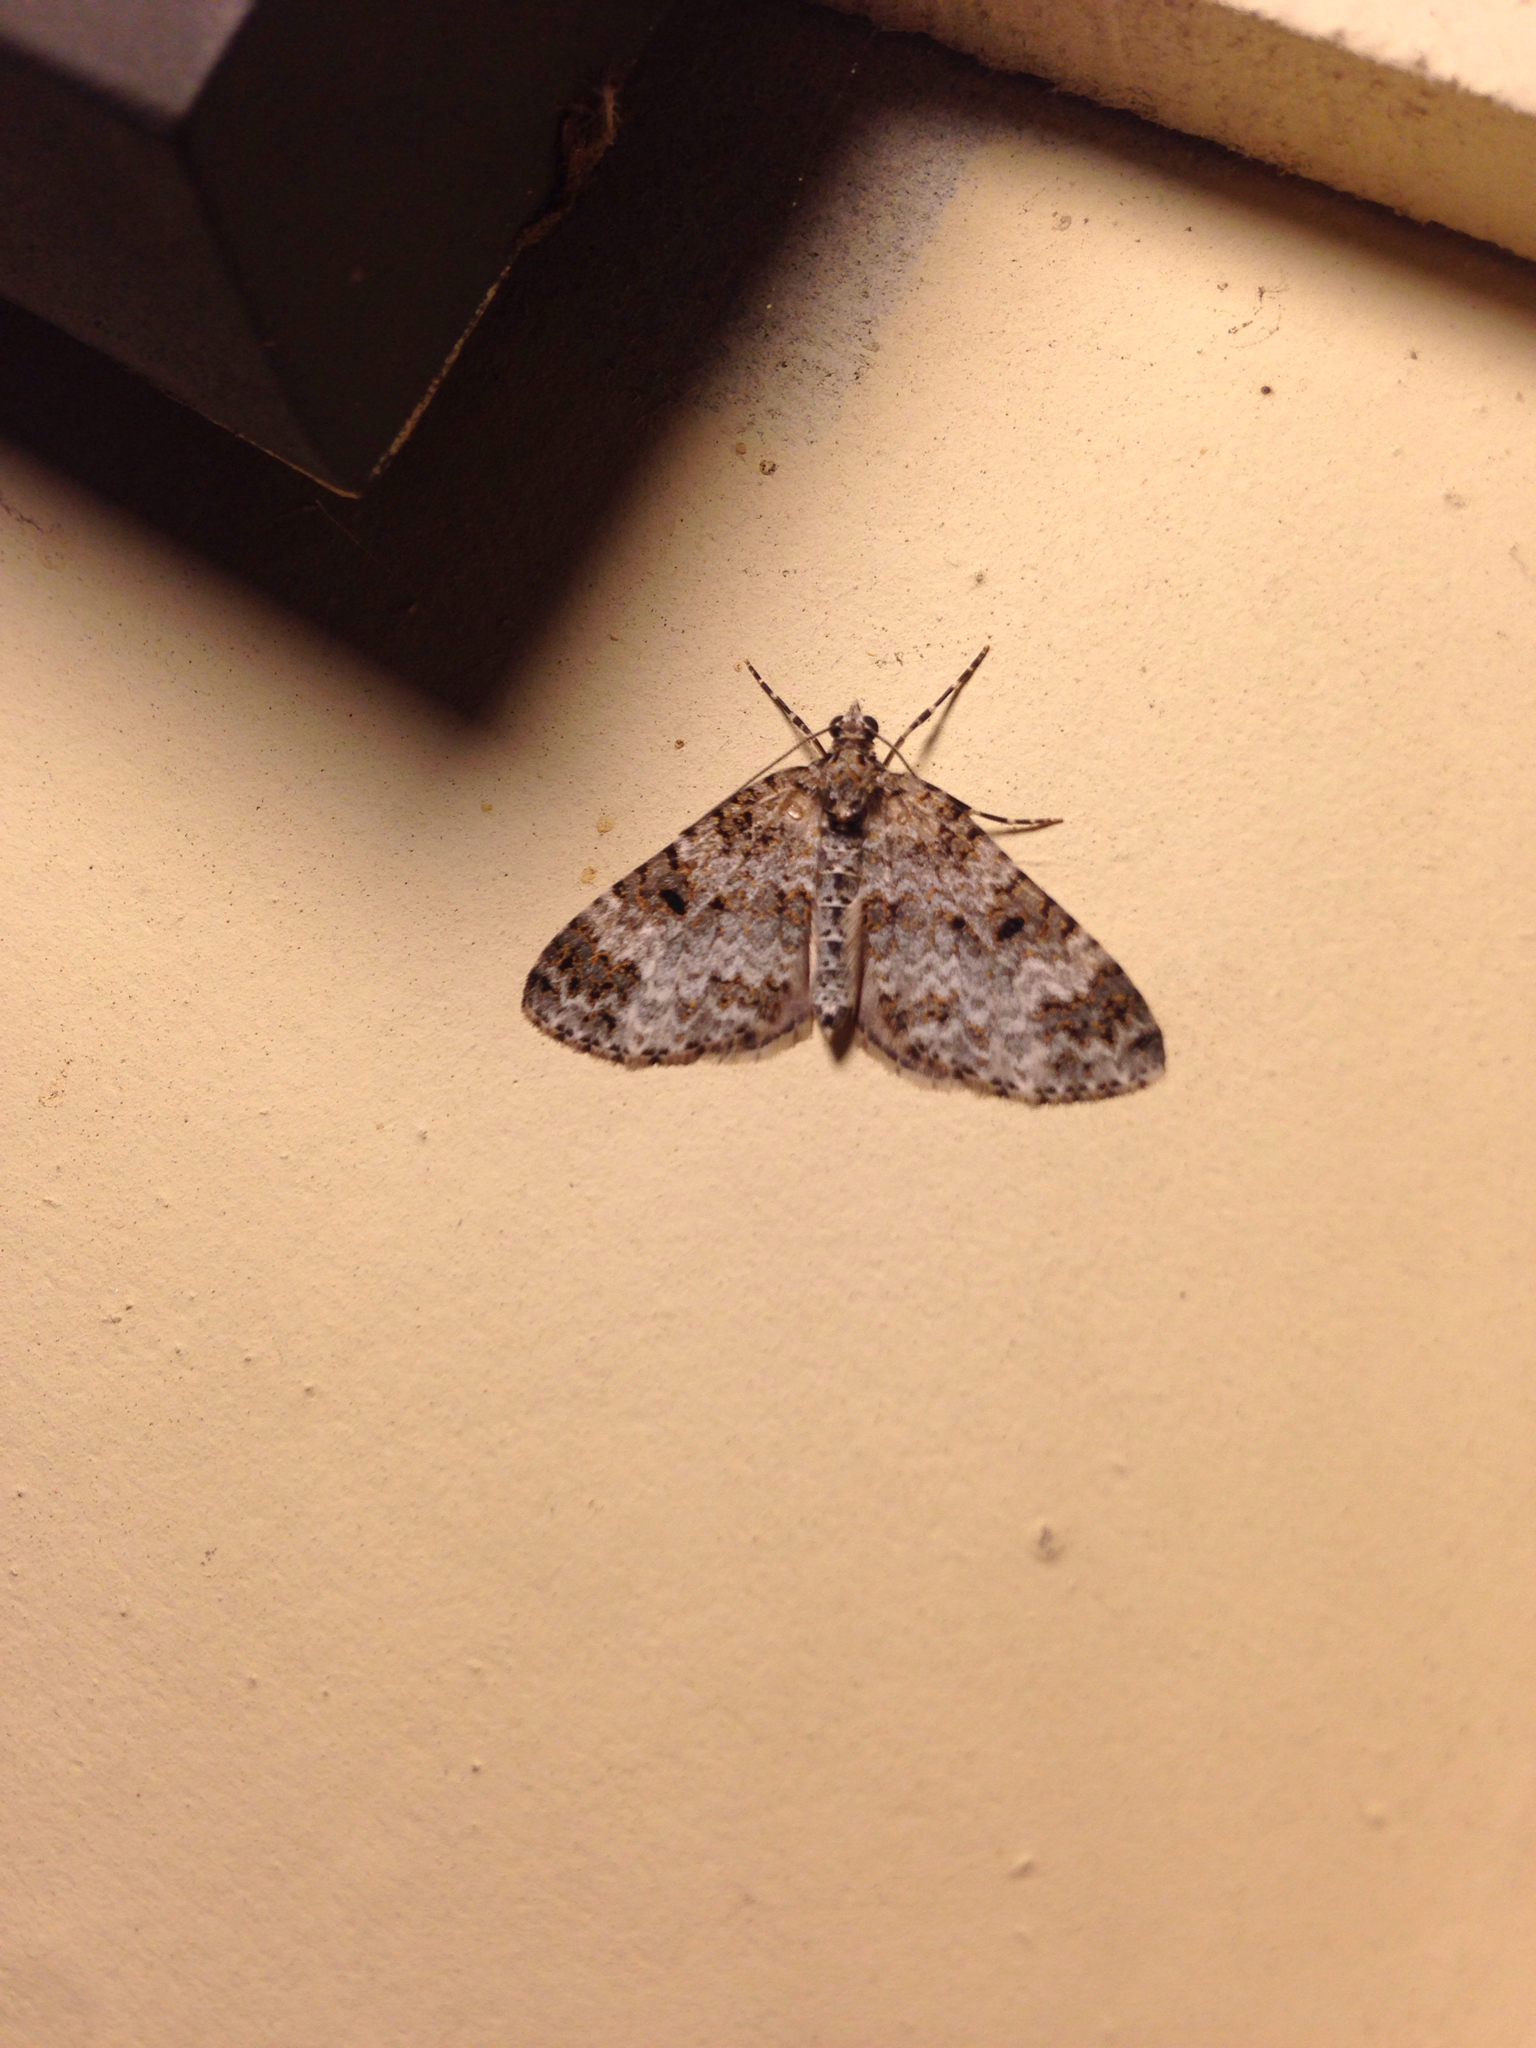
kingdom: Animalia
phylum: Arthropoda
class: Insecta
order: Lepidoptera
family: Geometridae
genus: Spargania
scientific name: Spargania magnoliata
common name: Double-banded carpet
